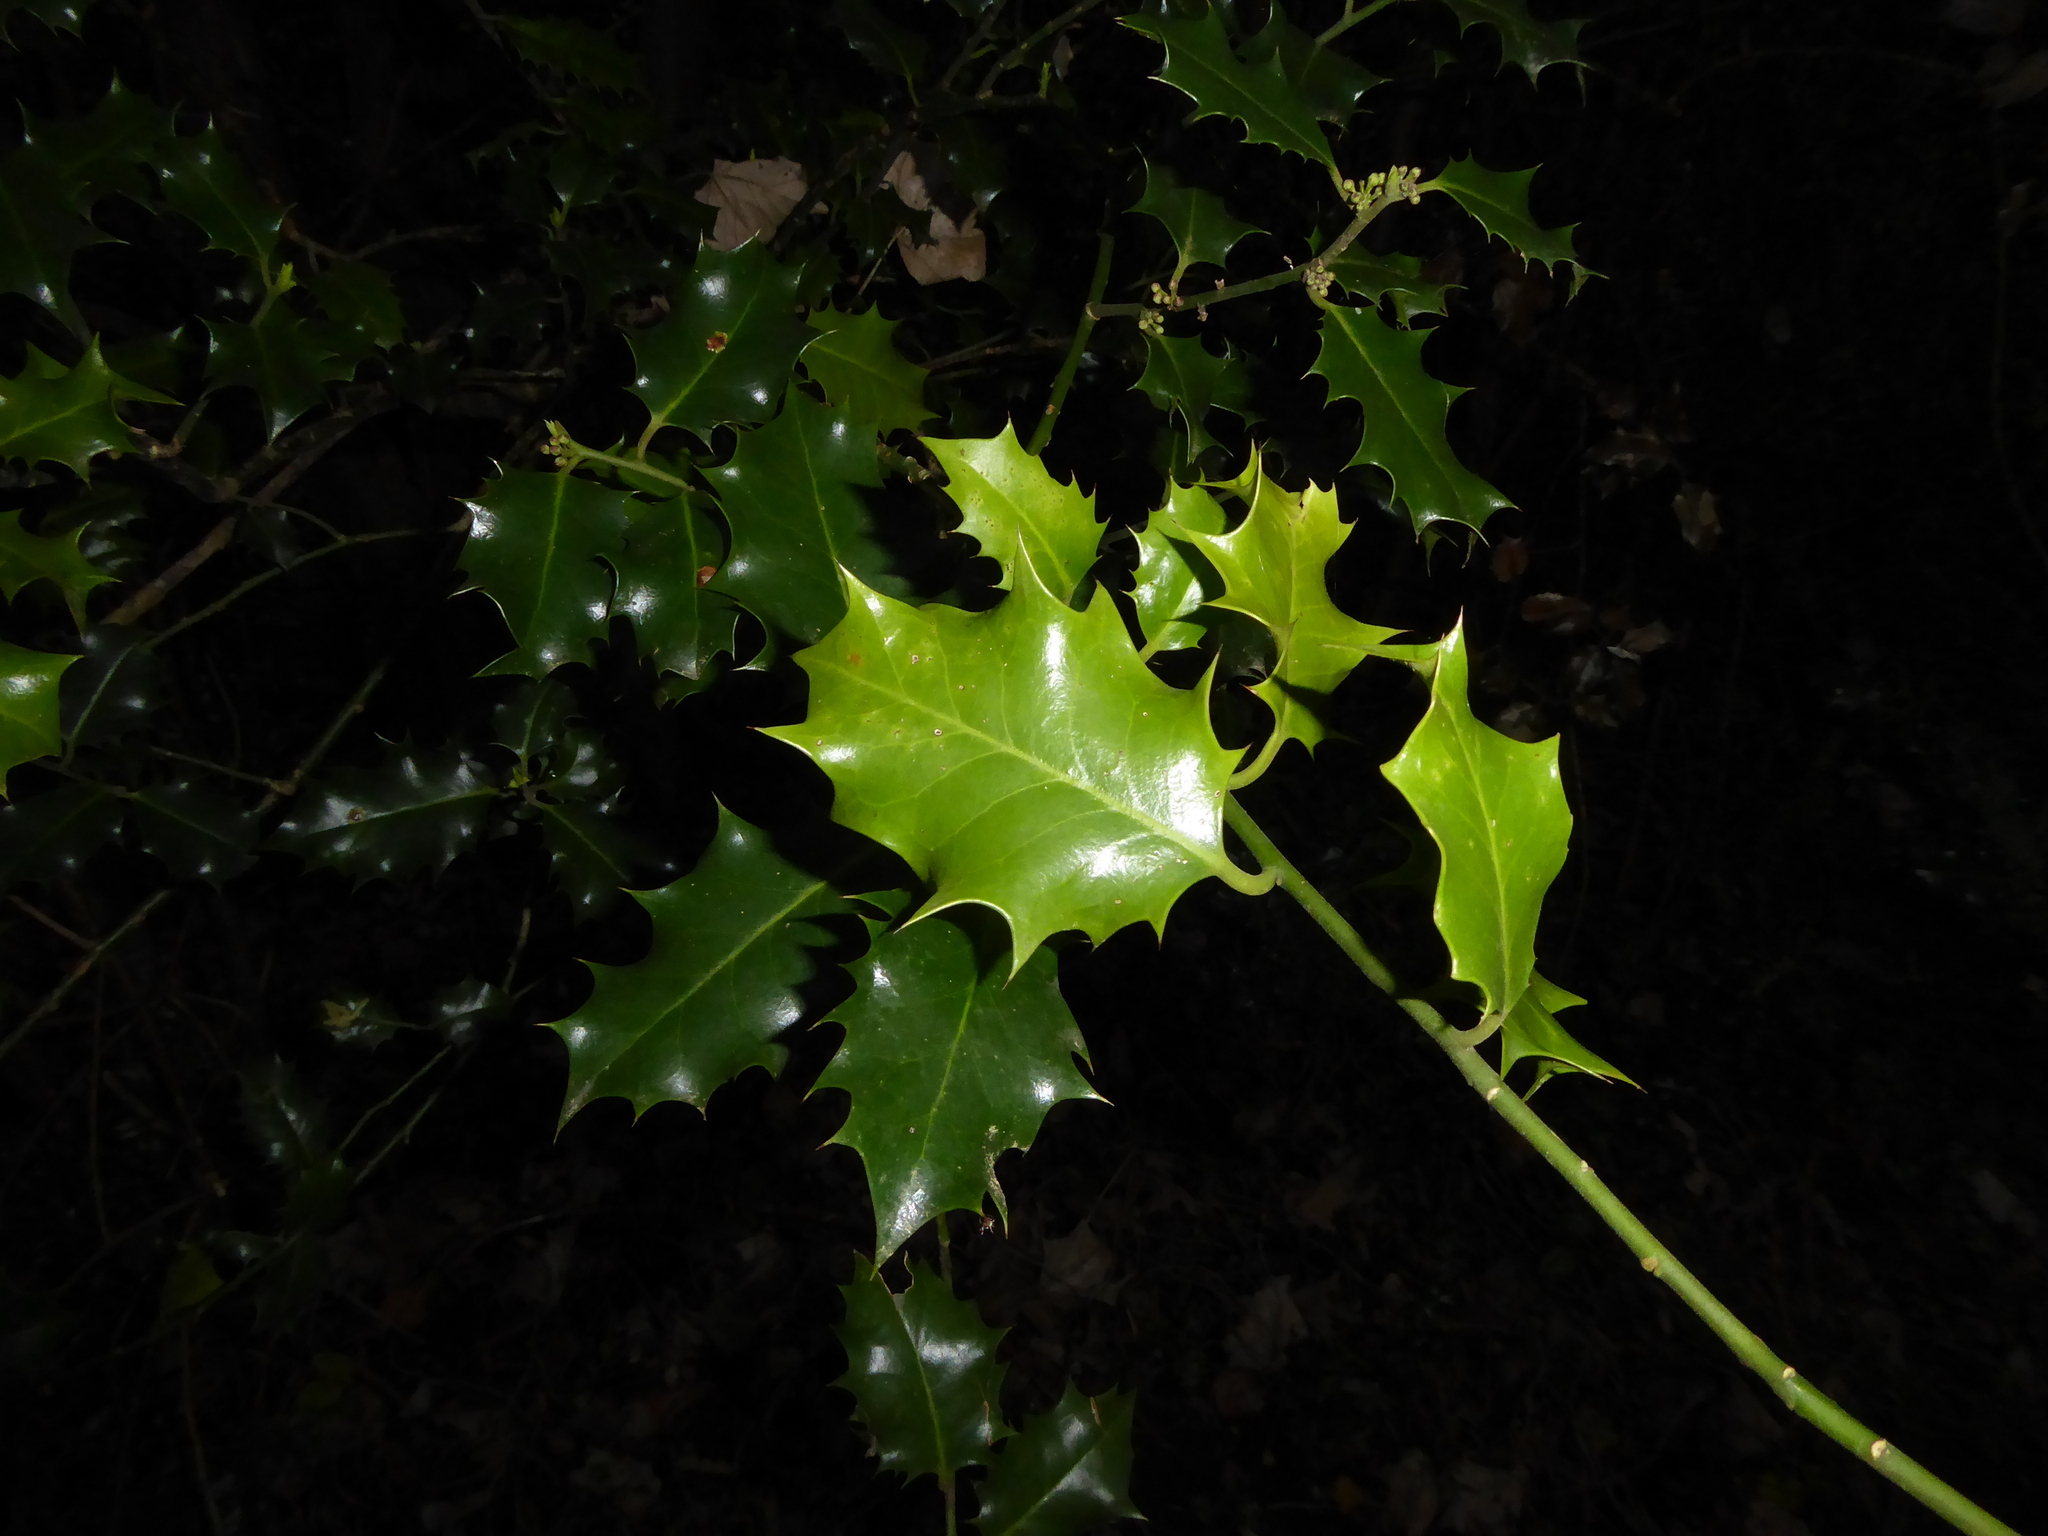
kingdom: Plantae
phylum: Tracheophyta
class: Magnoliopsida
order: Aquifoliales
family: Aquifoliaceae
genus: Ilex
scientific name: Ilex aquifolium
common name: English holly
